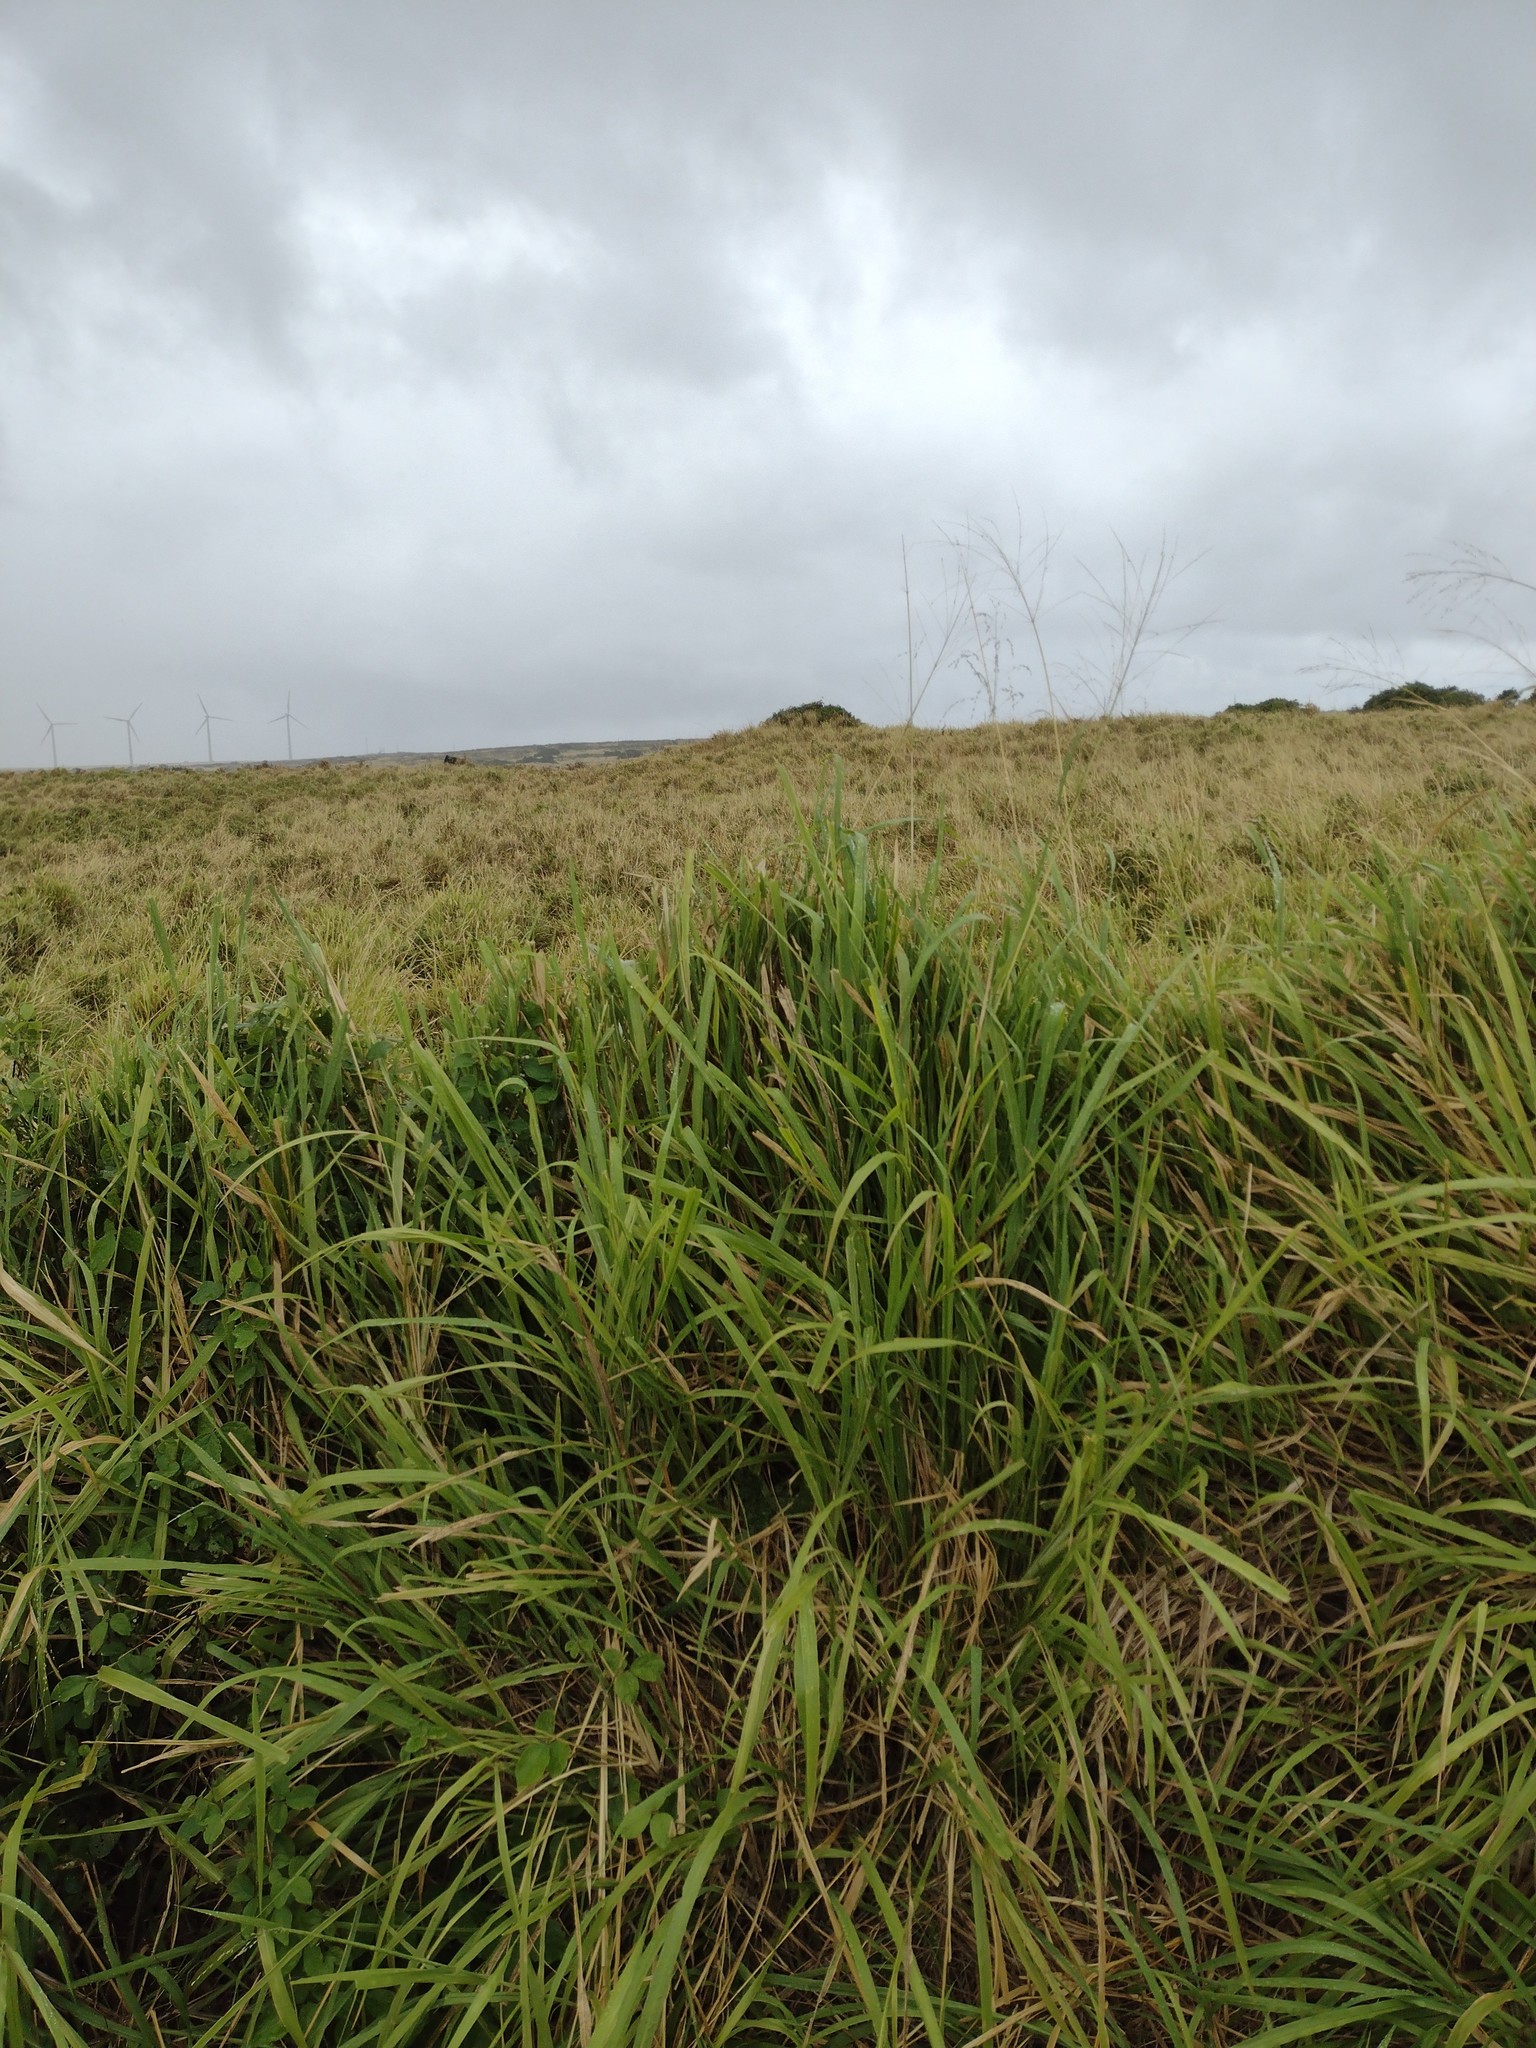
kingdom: Plantae
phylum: Tracheophyta
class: Liliopsida
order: Poales
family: Poaceae
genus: Megathyrsus
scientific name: Megathyrsus maximus
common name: Guineagrass
